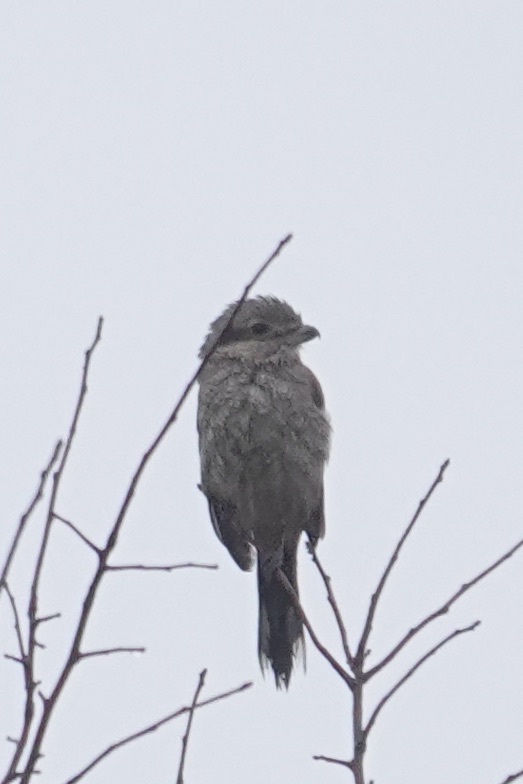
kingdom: Animalia
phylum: Chordata
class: Aves
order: Passeriformes
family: Laniidae
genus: Lanius
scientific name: Lanius borealis
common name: Northern shrike
